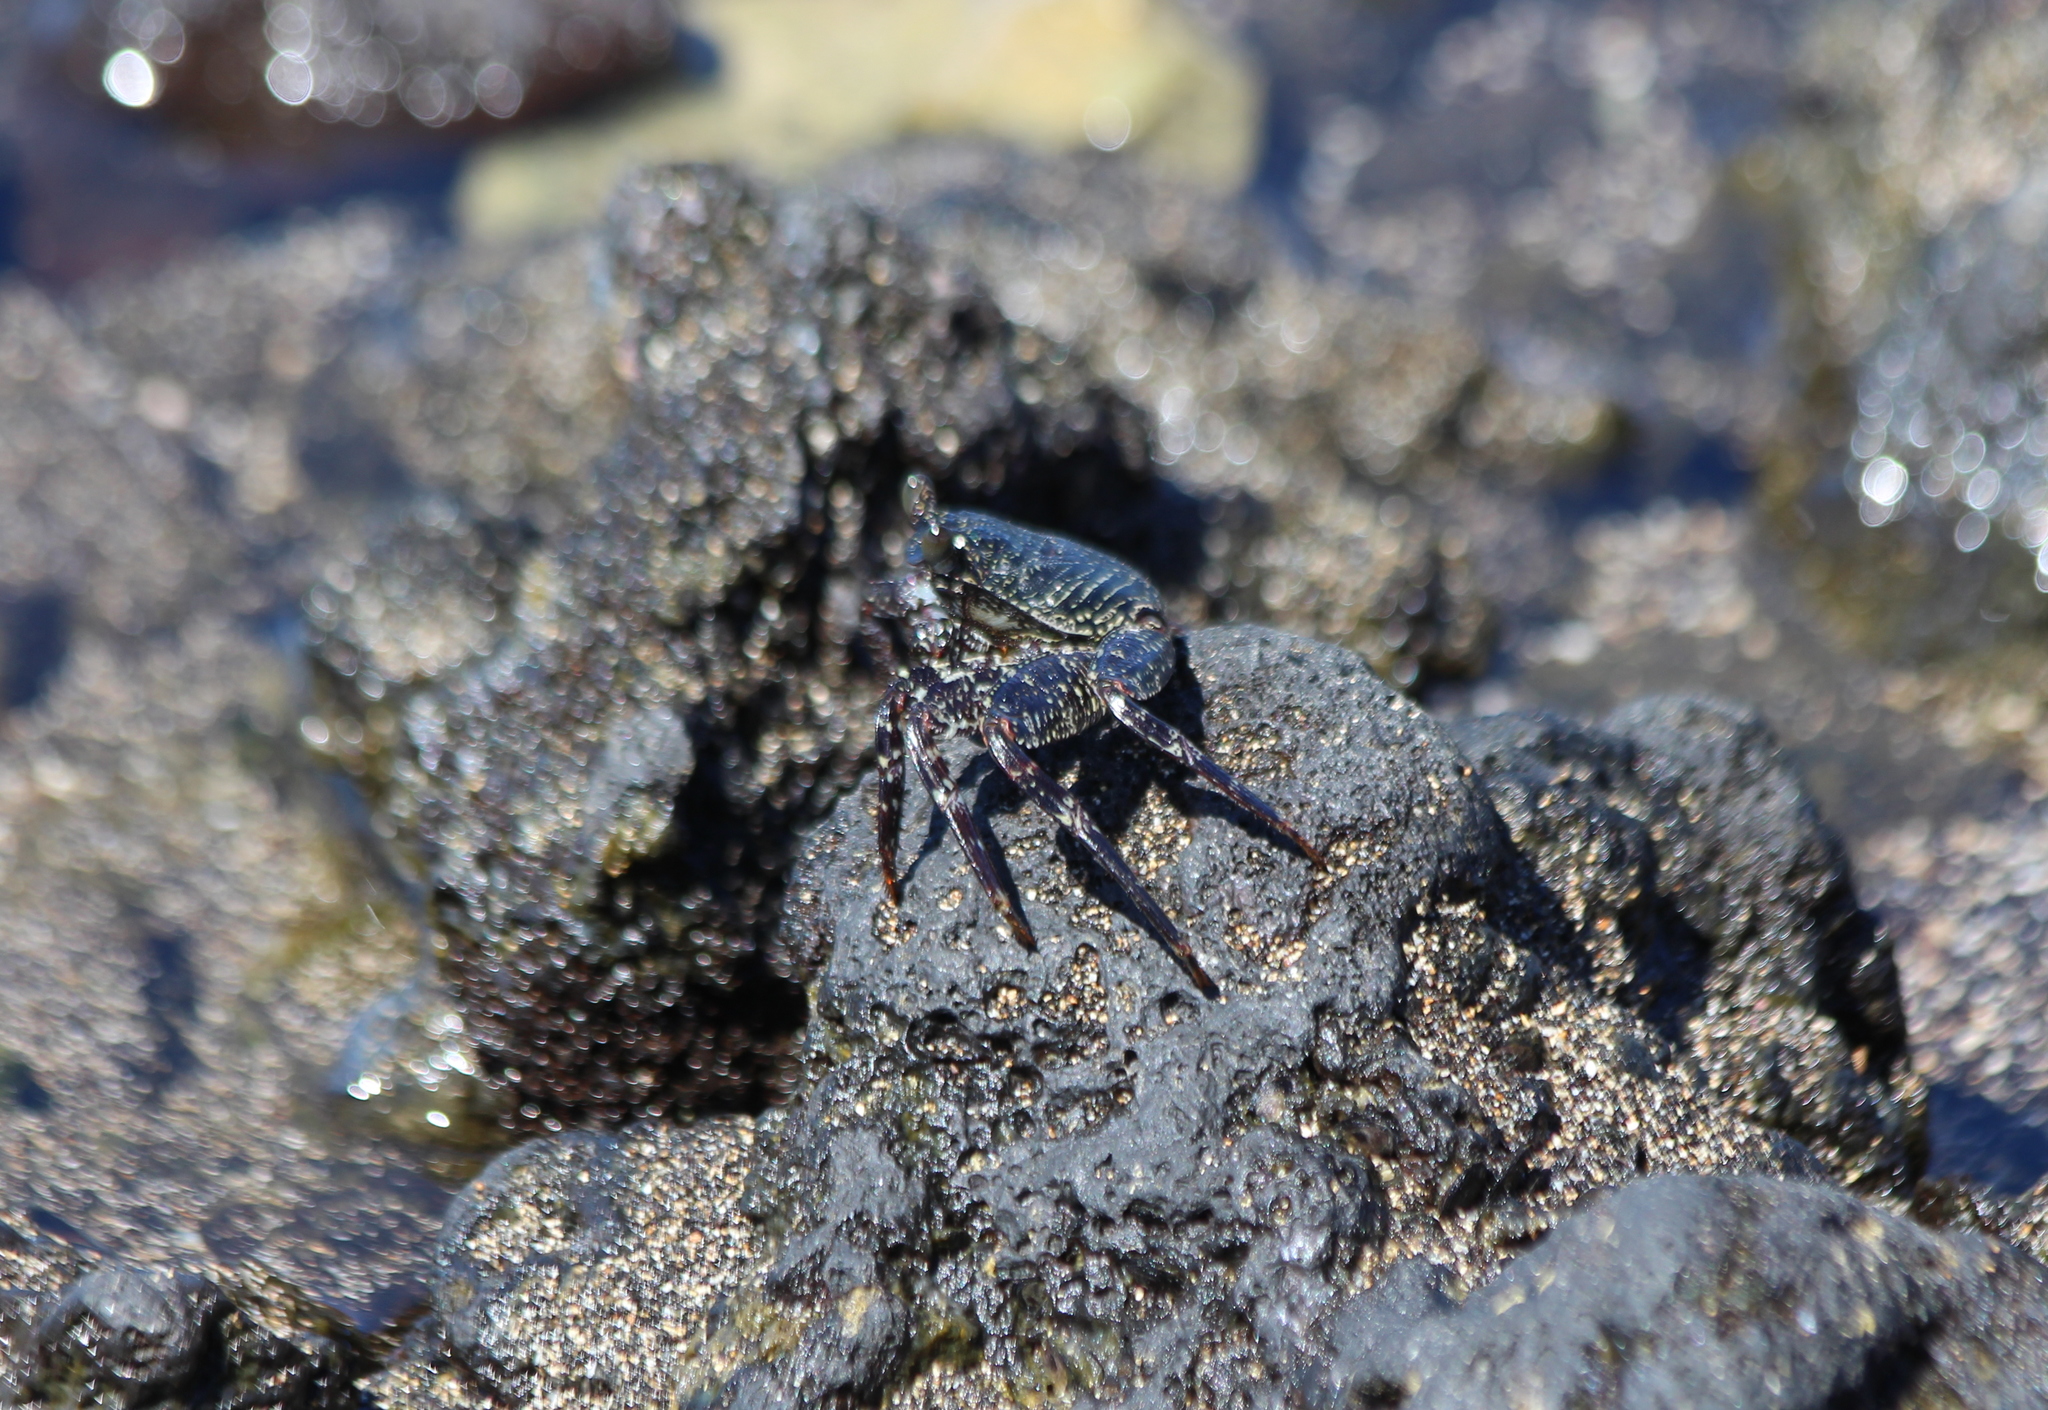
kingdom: Animalia
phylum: Arthropoda
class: Malacostraca
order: Decapoda
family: Grapsidae
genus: Grapsus
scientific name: Grapsus tenuicrustatus
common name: Natal lightfoot crab
